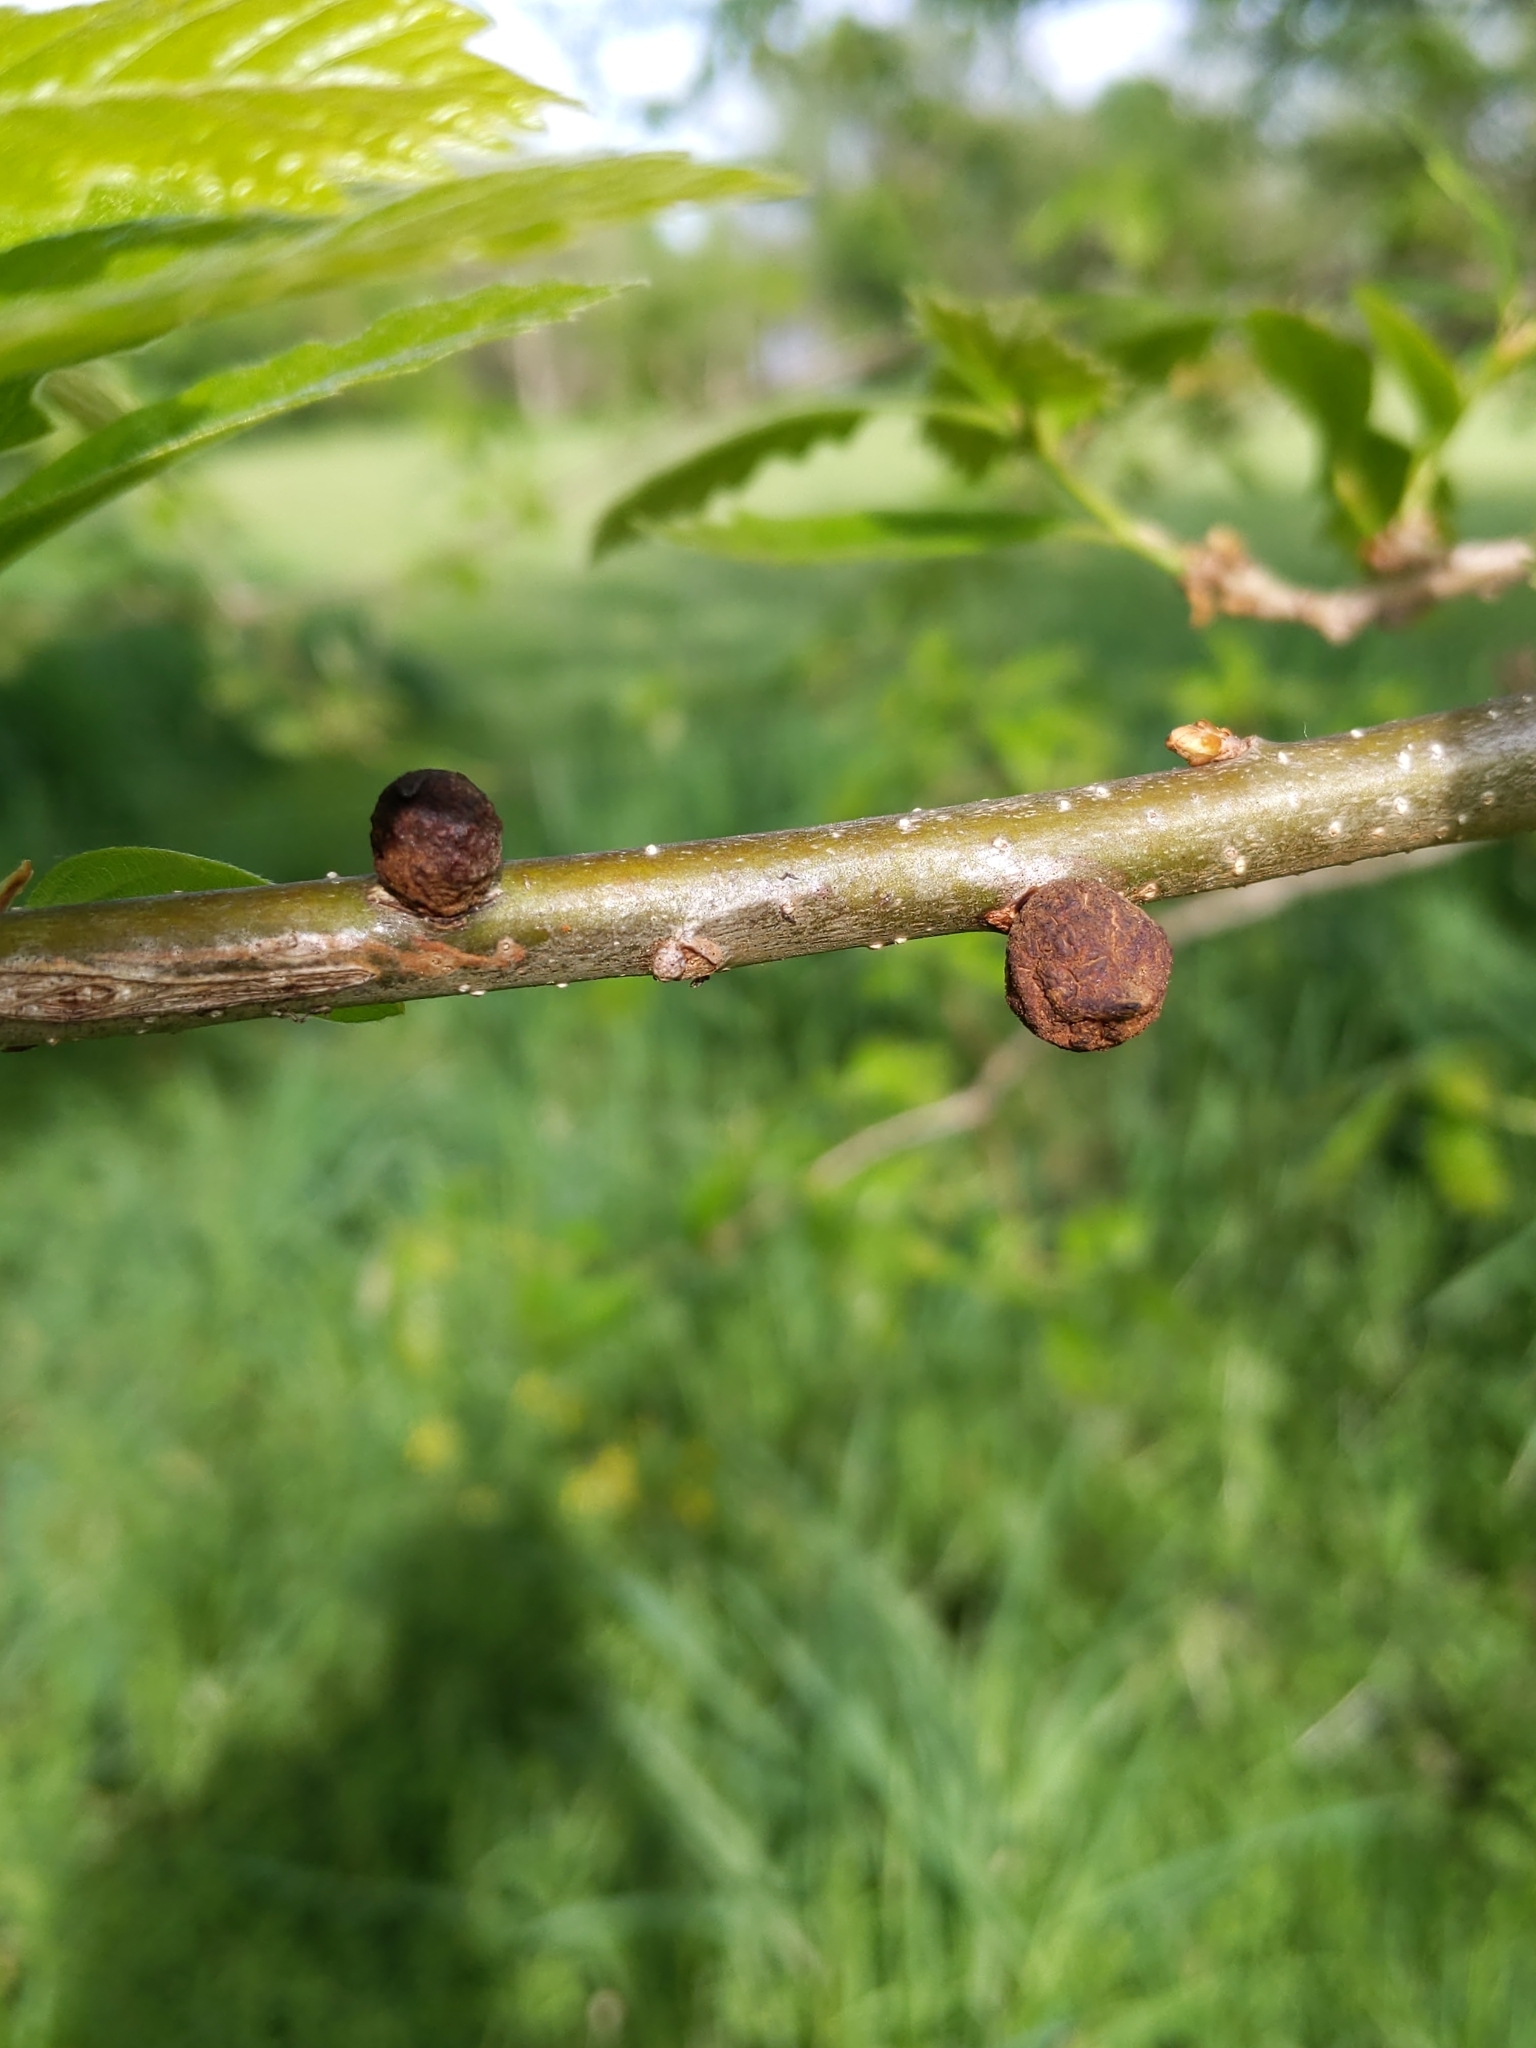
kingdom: Animalia
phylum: Arthropoda
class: Insecta
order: Hymenoptera
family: Cynipidae
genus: Callirhytis
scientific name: Callirhytis
